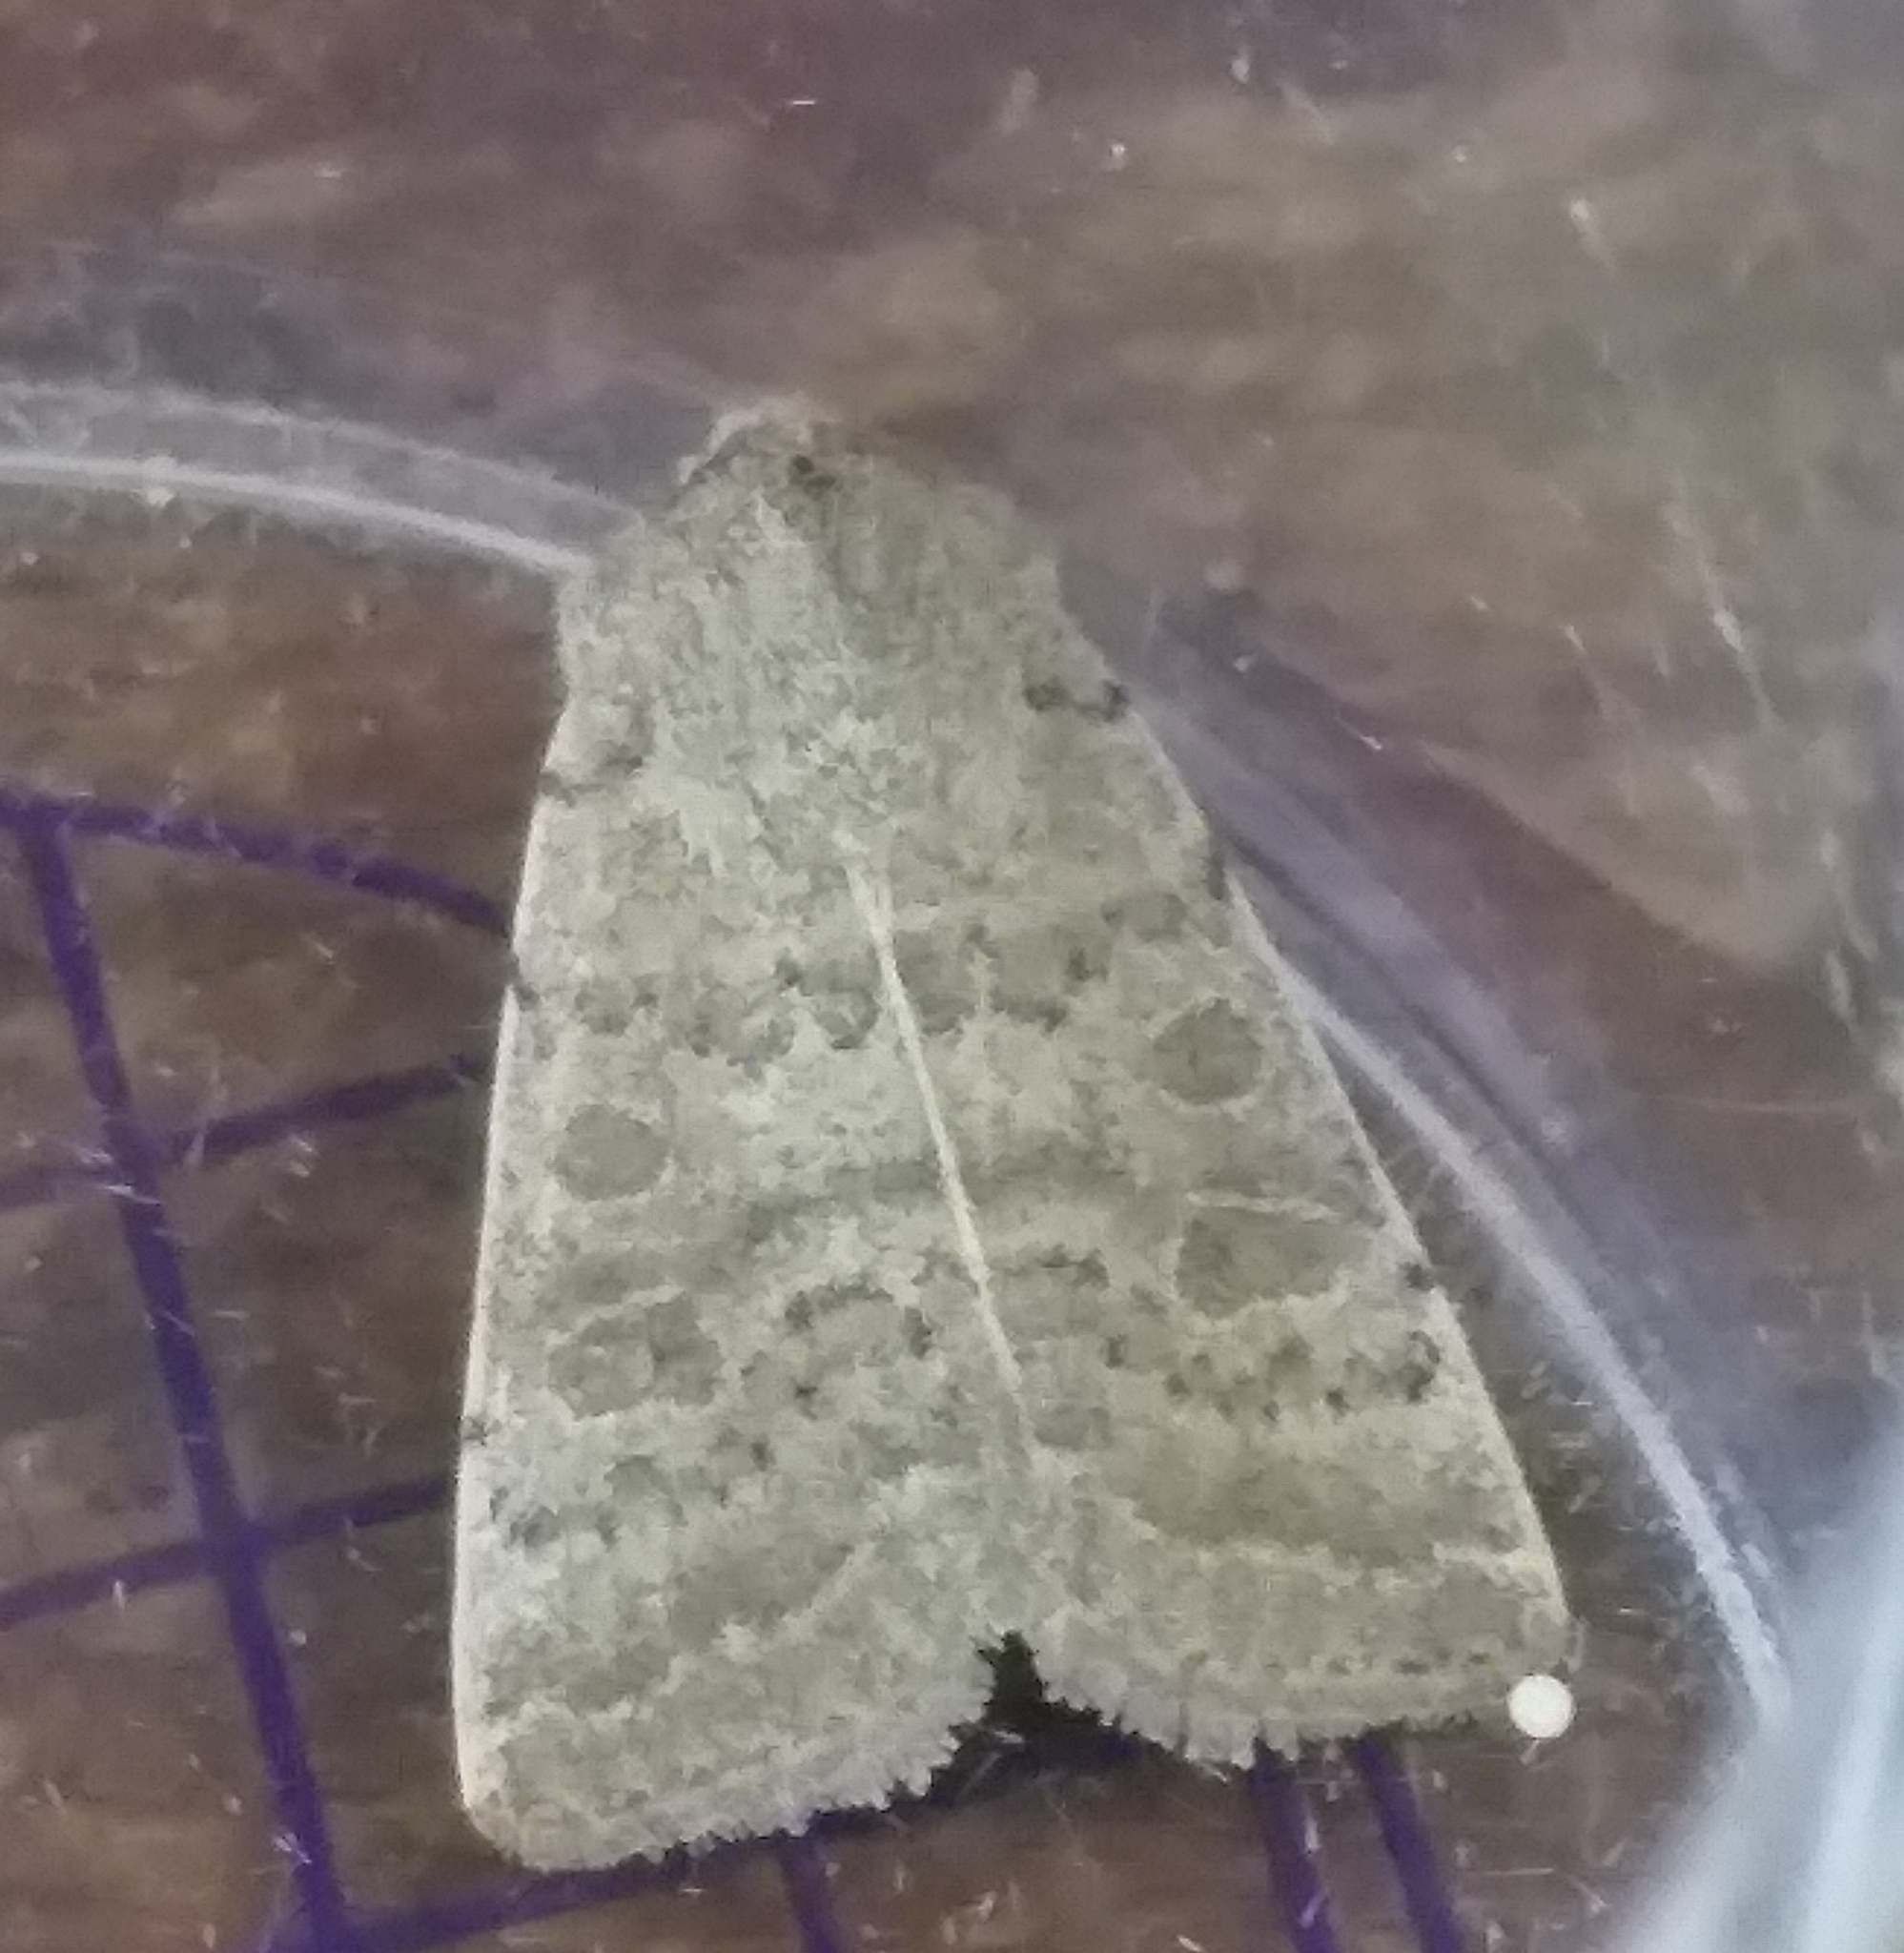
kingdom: Animalia
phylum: Arthropoda
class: Insecta
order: Lepidoptera
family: Noctuidae
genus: Hoplodrina
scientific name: Hoplodrina ambigua
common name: Vine's rustic
